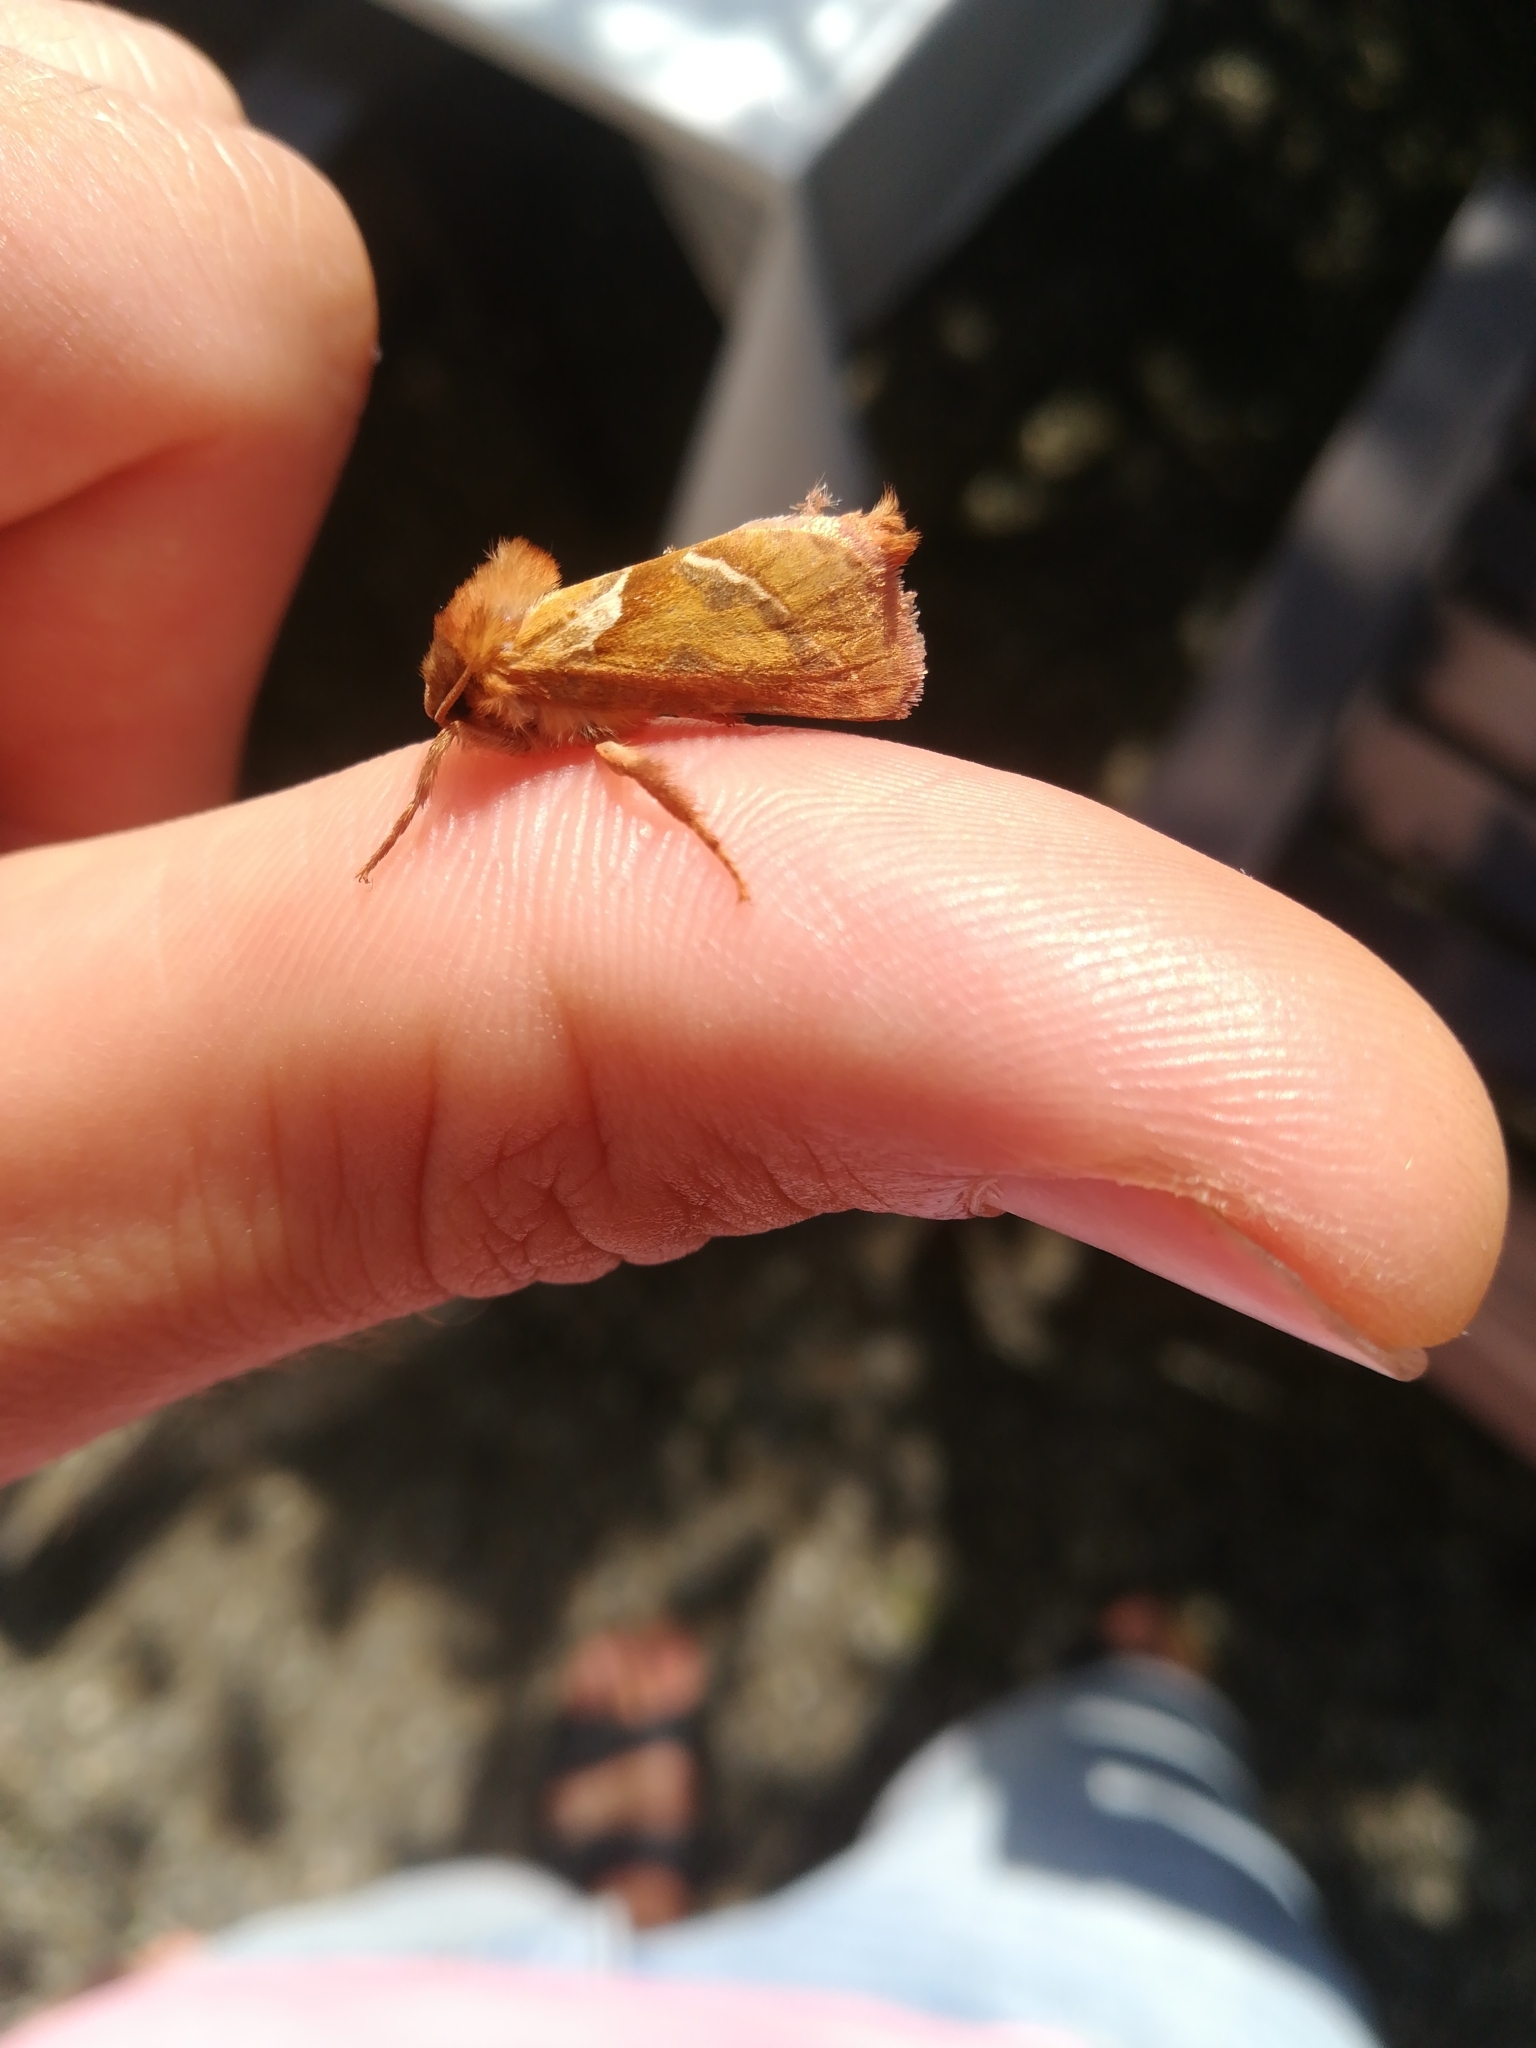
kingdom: Animalia
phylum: Arthropoda
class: Insecta
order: Lepidoptera
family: Hepialidae
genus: Triodia
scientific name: Triodia sylvina
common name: Orange swift
